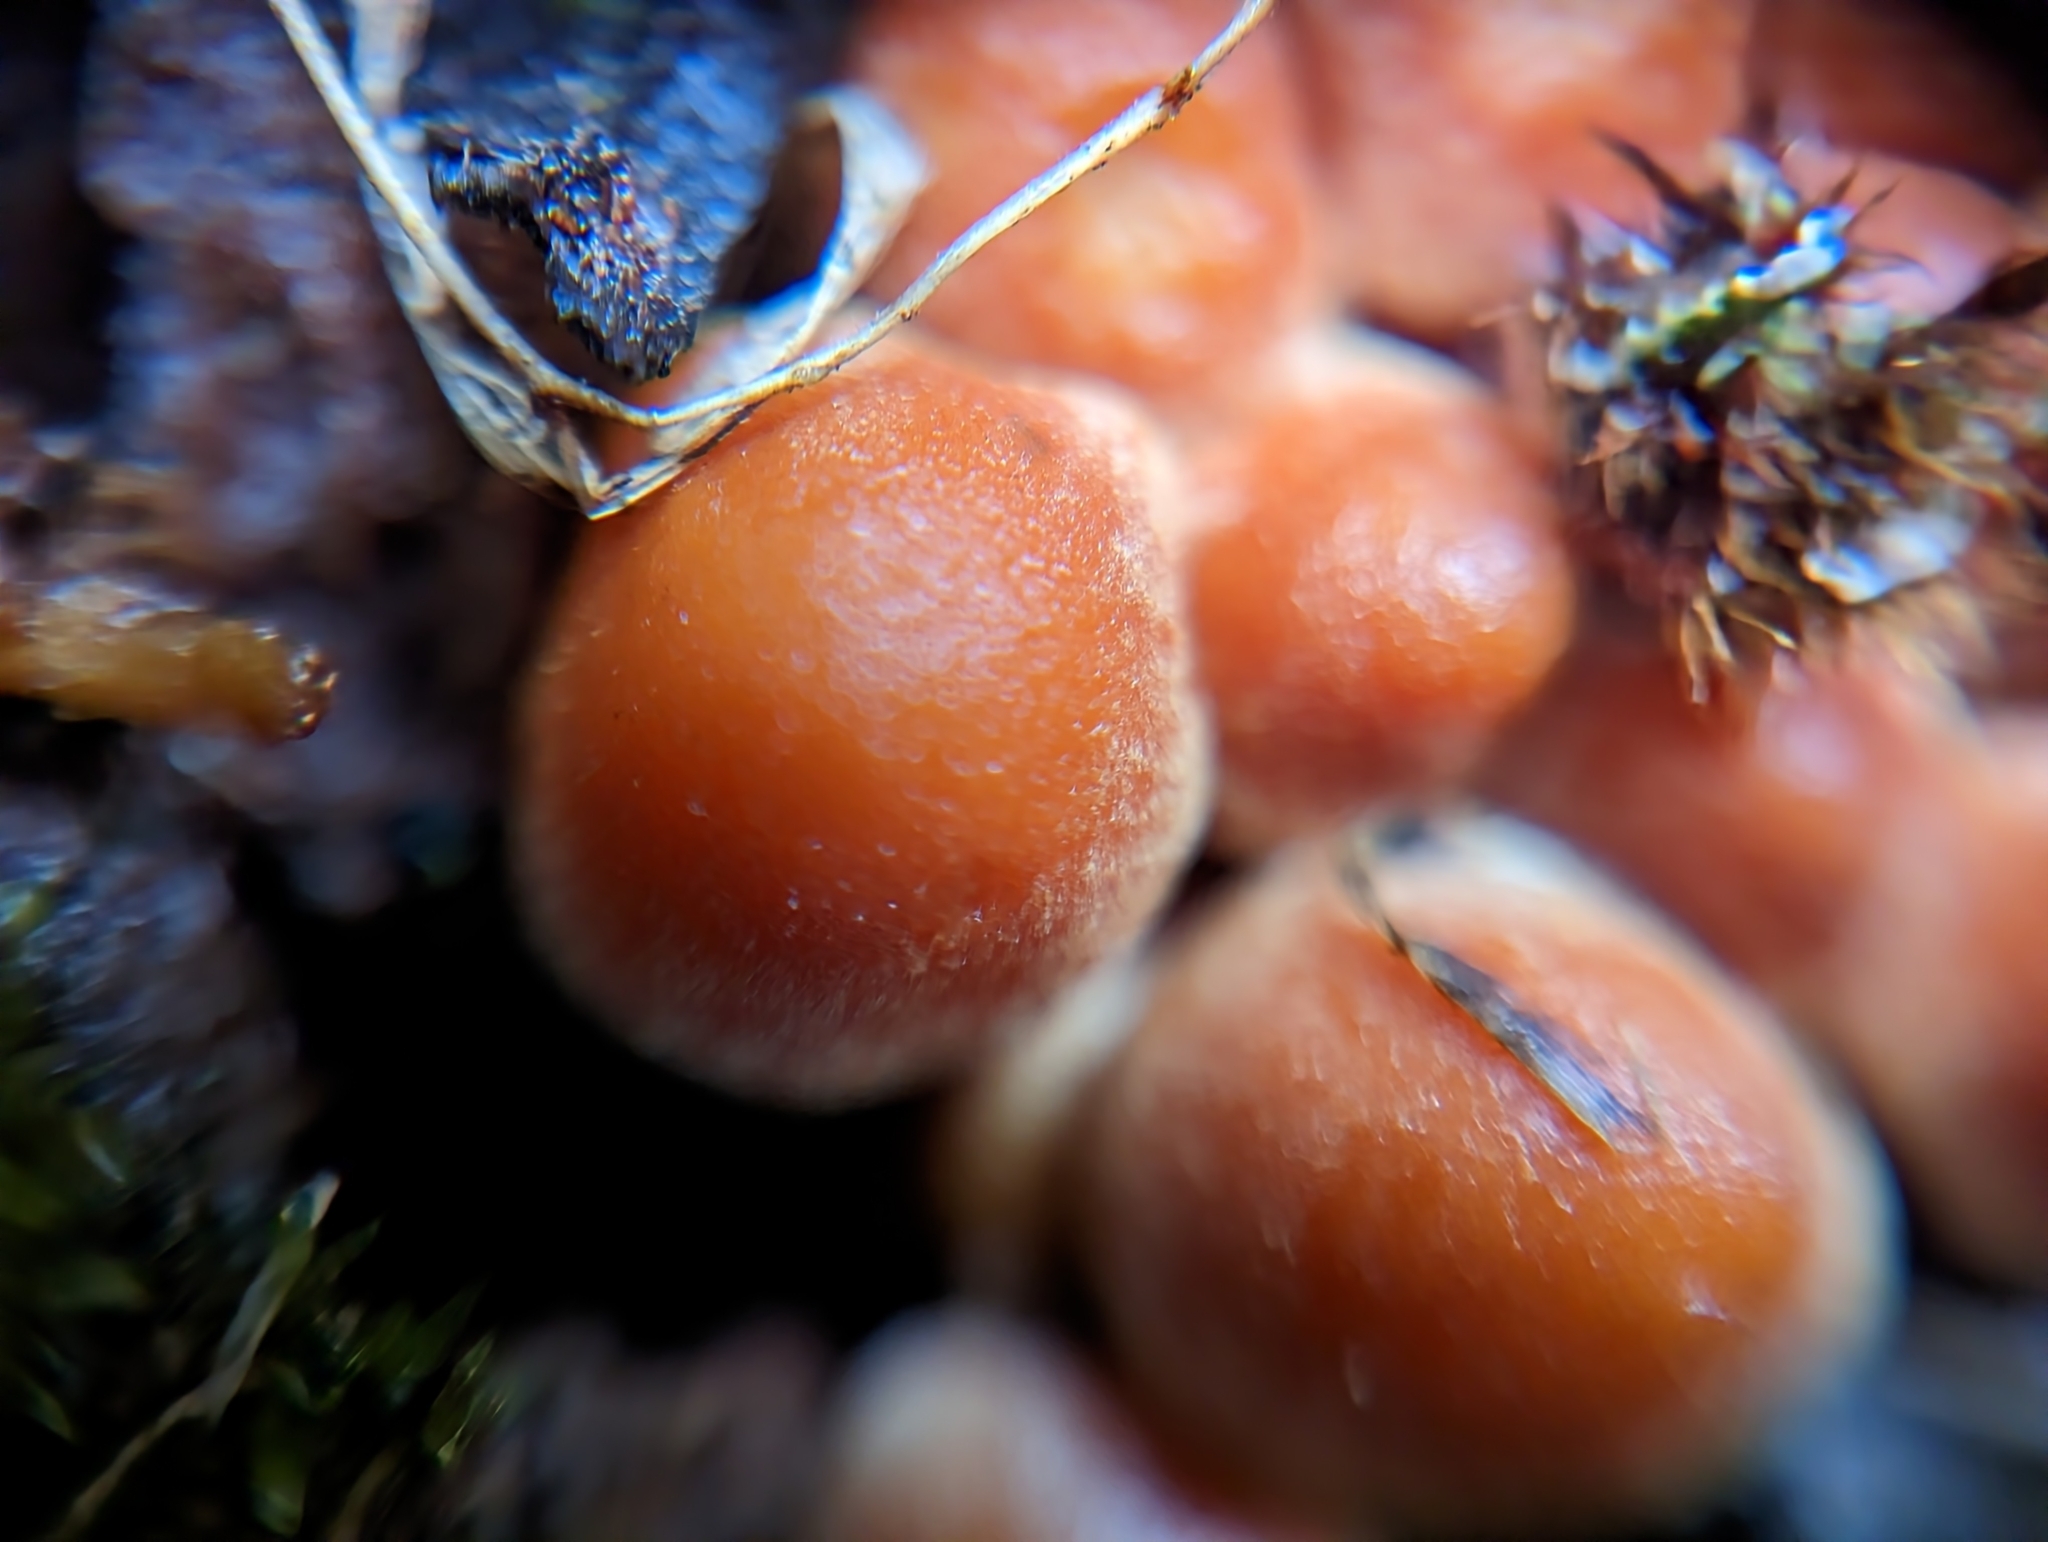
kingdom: Fungi
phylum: Basidiomycota
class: Agaricomycetes
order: Agaricales
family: Strophariaceae
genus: Hypholoma
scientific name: Hypholoma fasciculare
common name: Sulphur tuft
